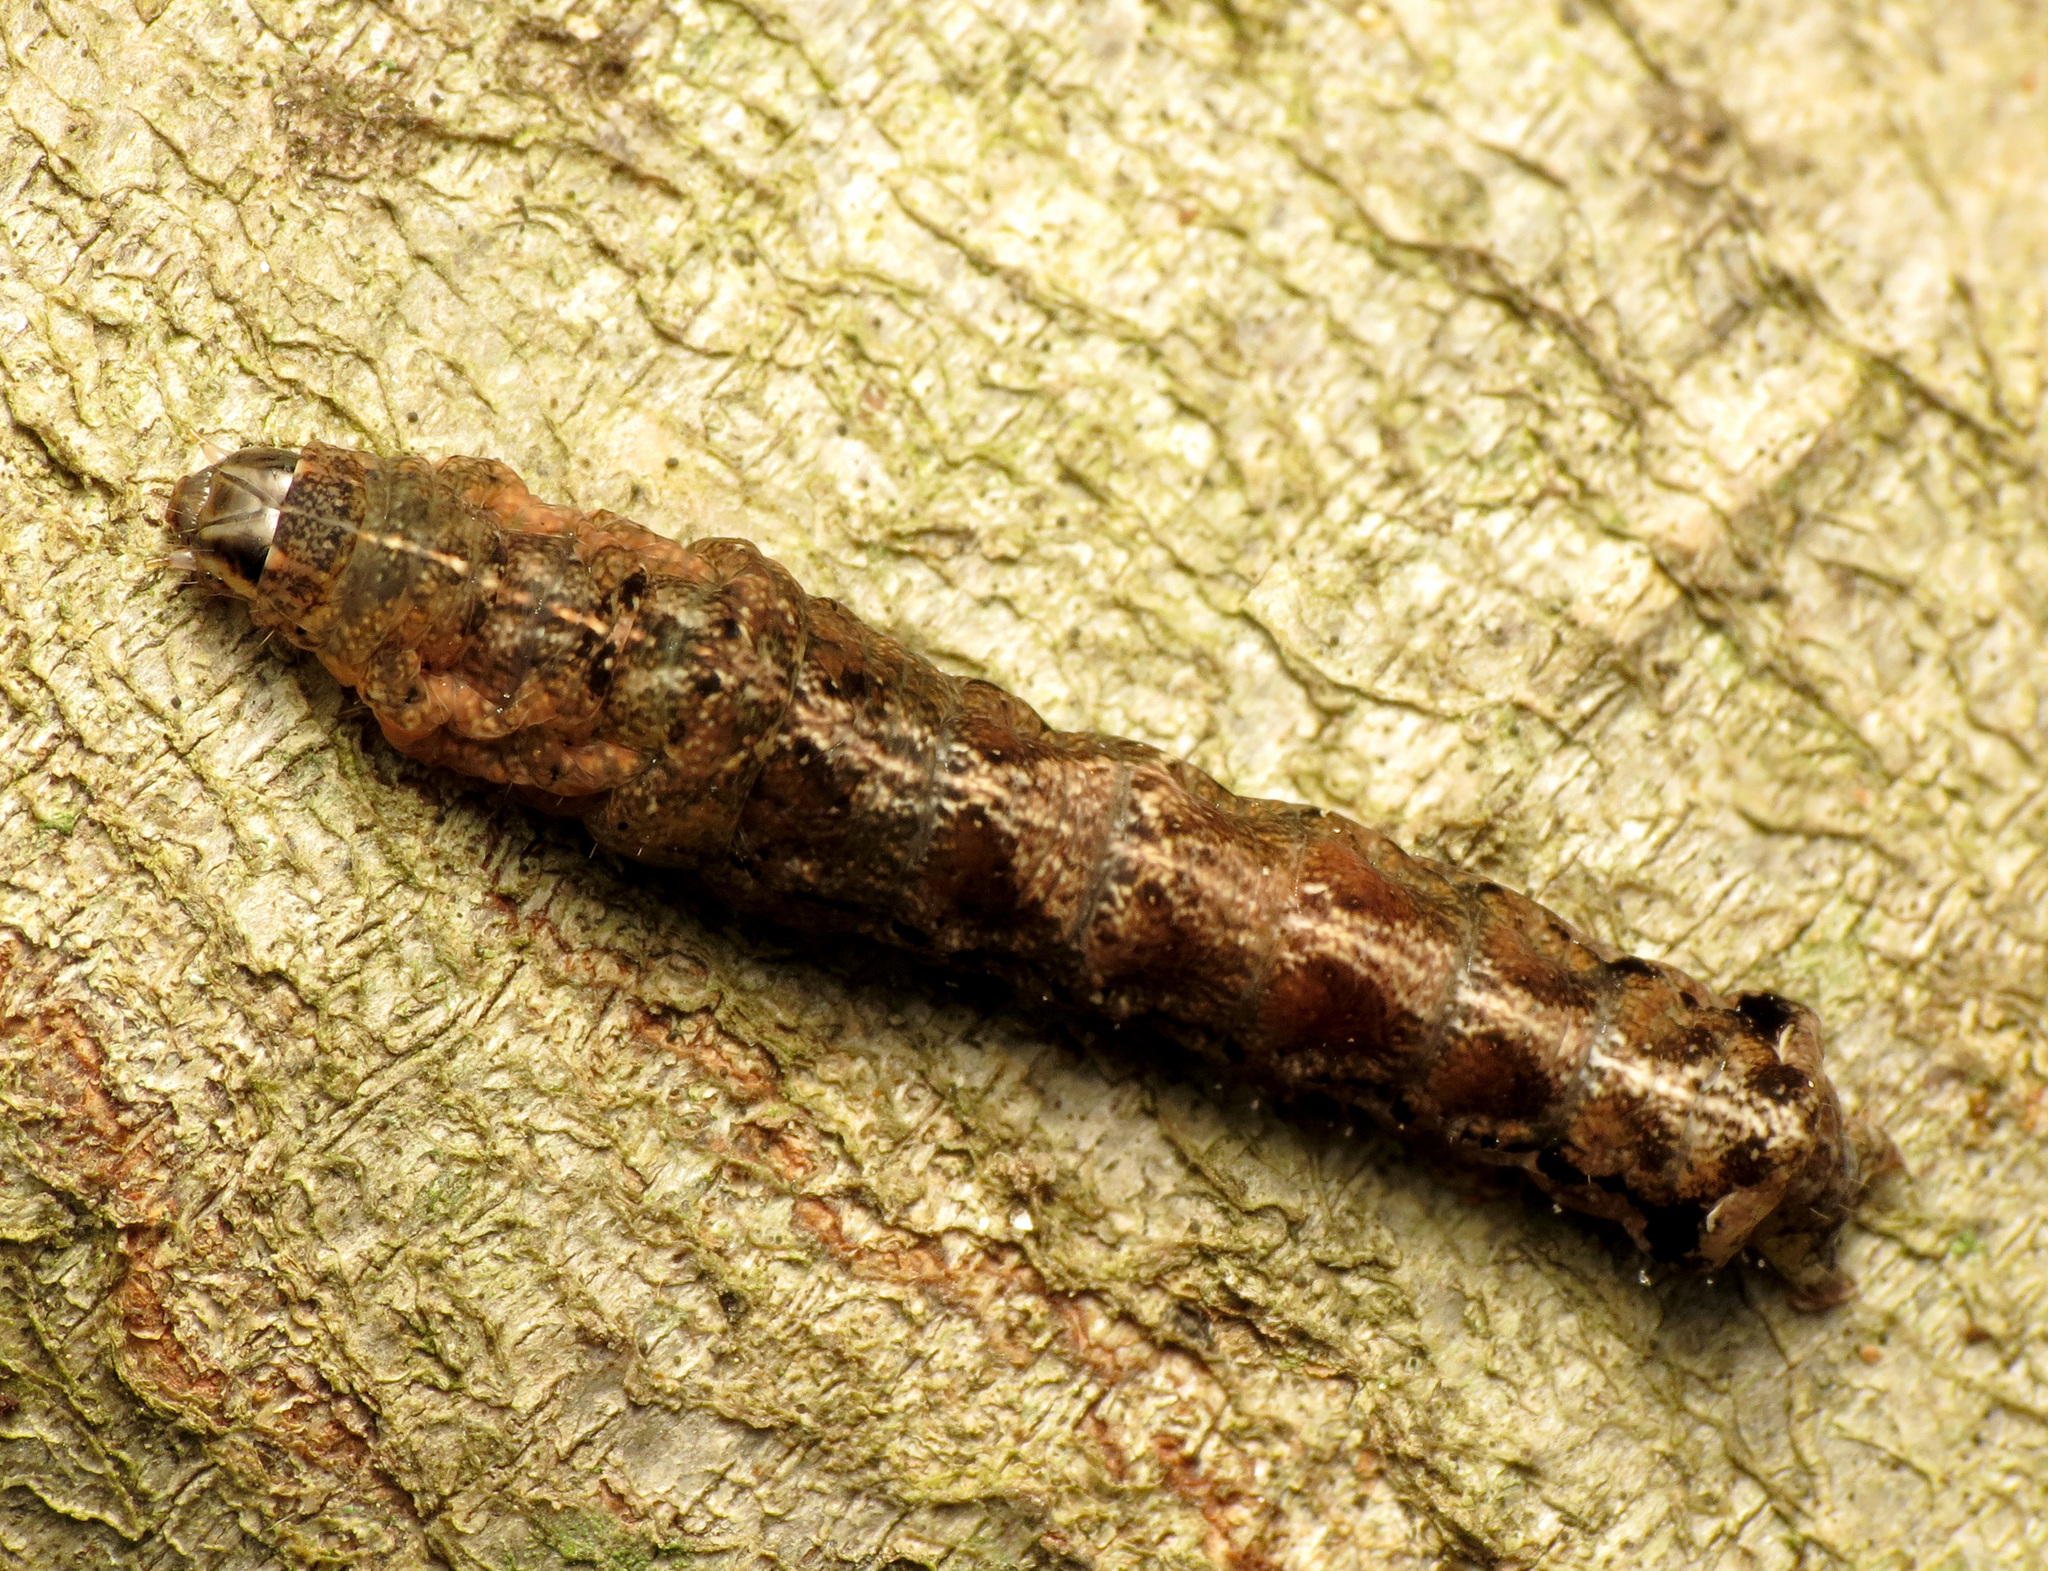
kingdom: Animalia
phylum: Arthropoda
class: Insecta
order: Lepidoptera
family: Noctuidae
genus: Elaphria
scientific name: Elaphria versicolor
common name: Fir harlequin
